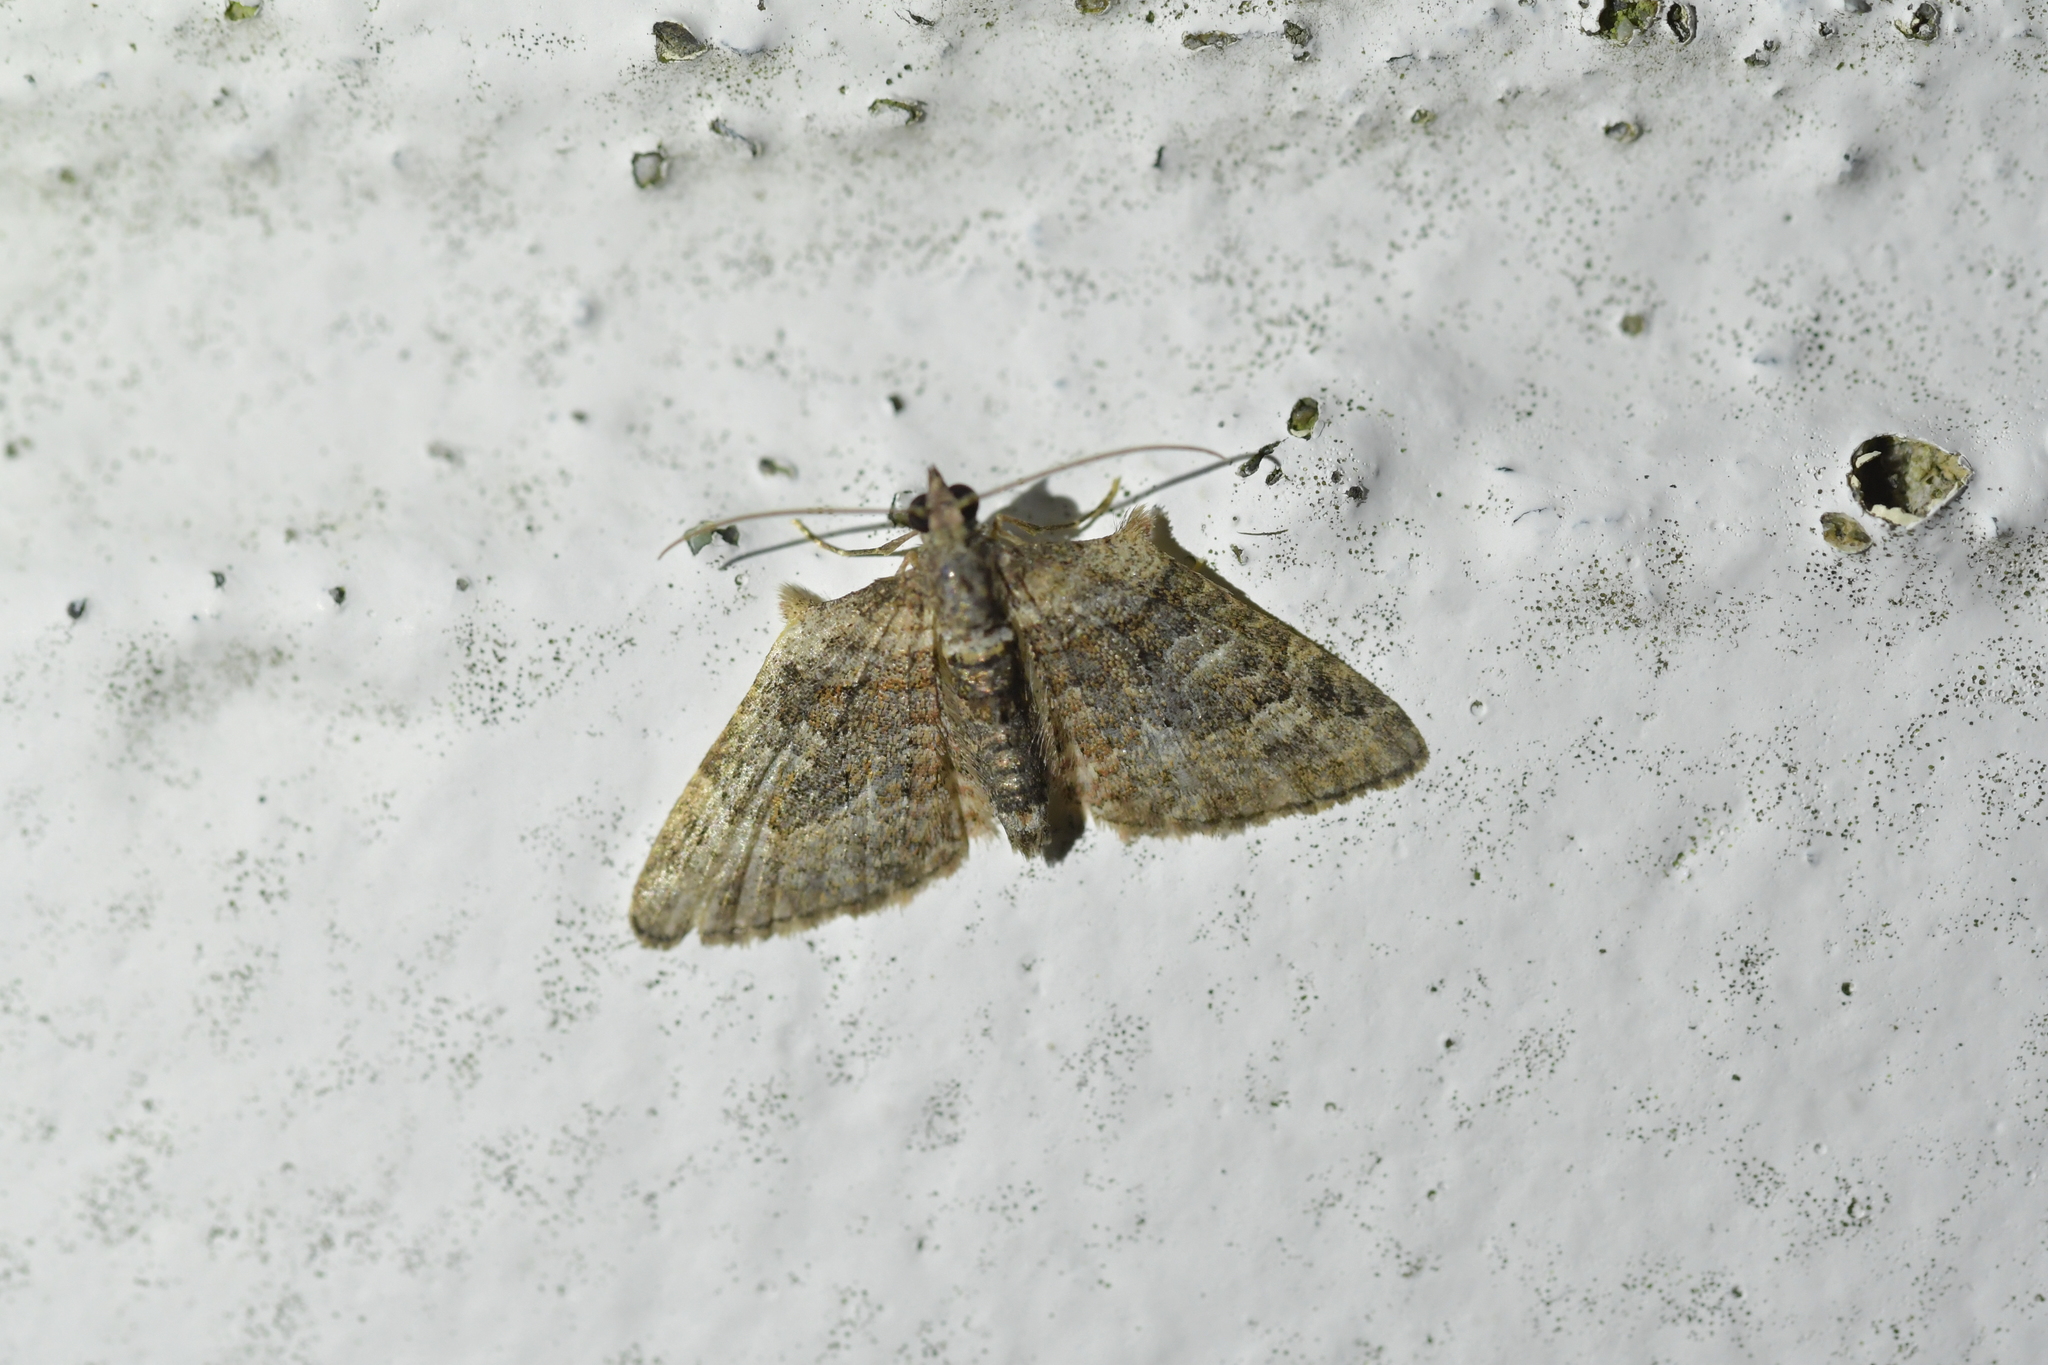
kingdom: Animalia
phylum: Arthropoda
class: Insecta
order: Lepidoptera
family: Geometridae
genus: Phrissogonus
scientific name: Phrissogonus laticostata
